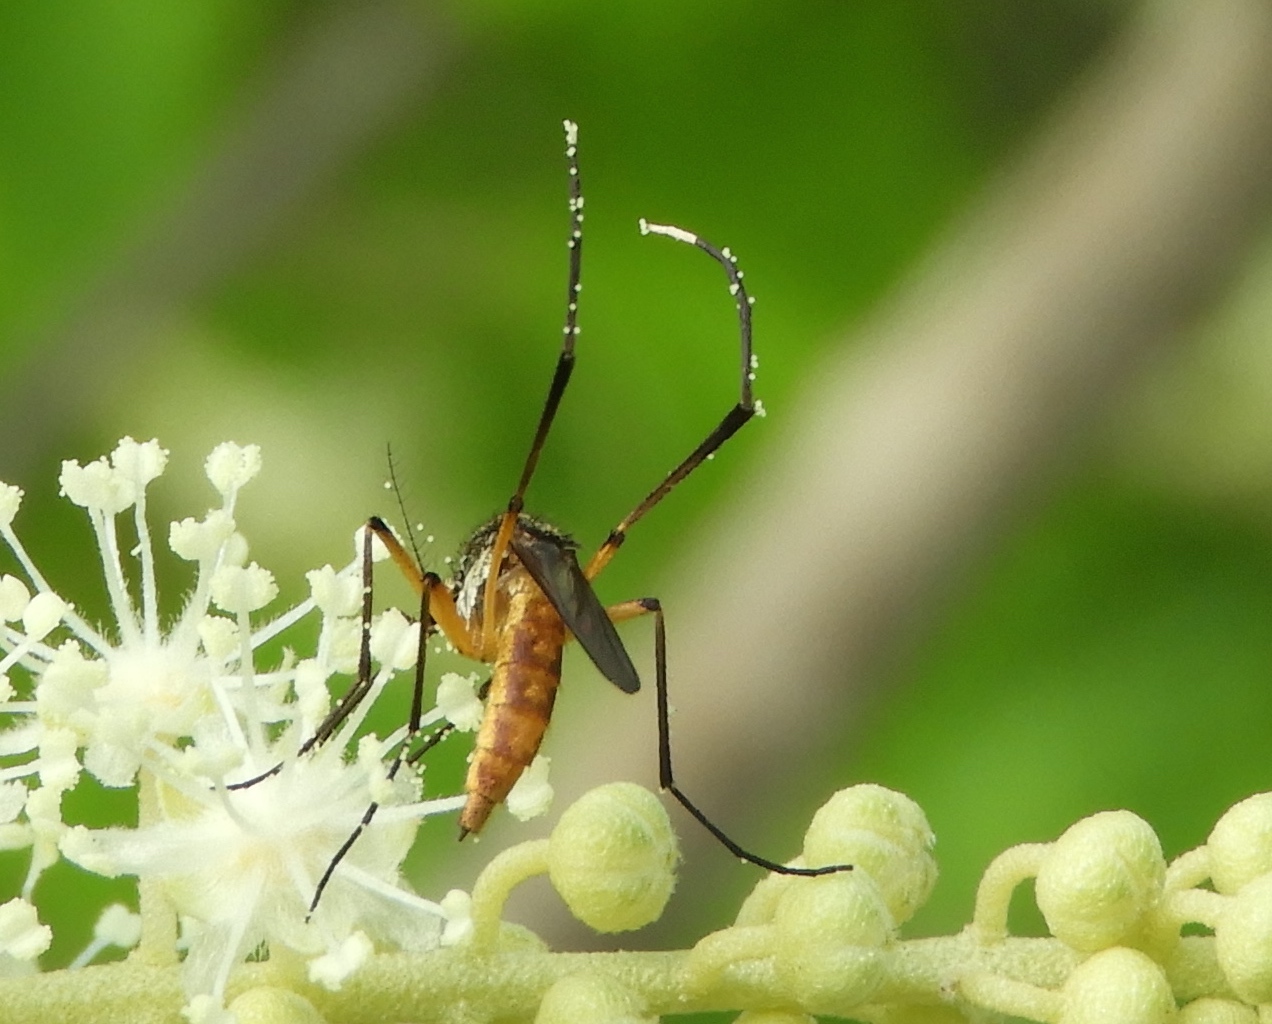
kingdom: Animalia
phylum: Arthropoda
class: Insecta
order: Diptera
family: Culicidae
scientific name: Culicidae
